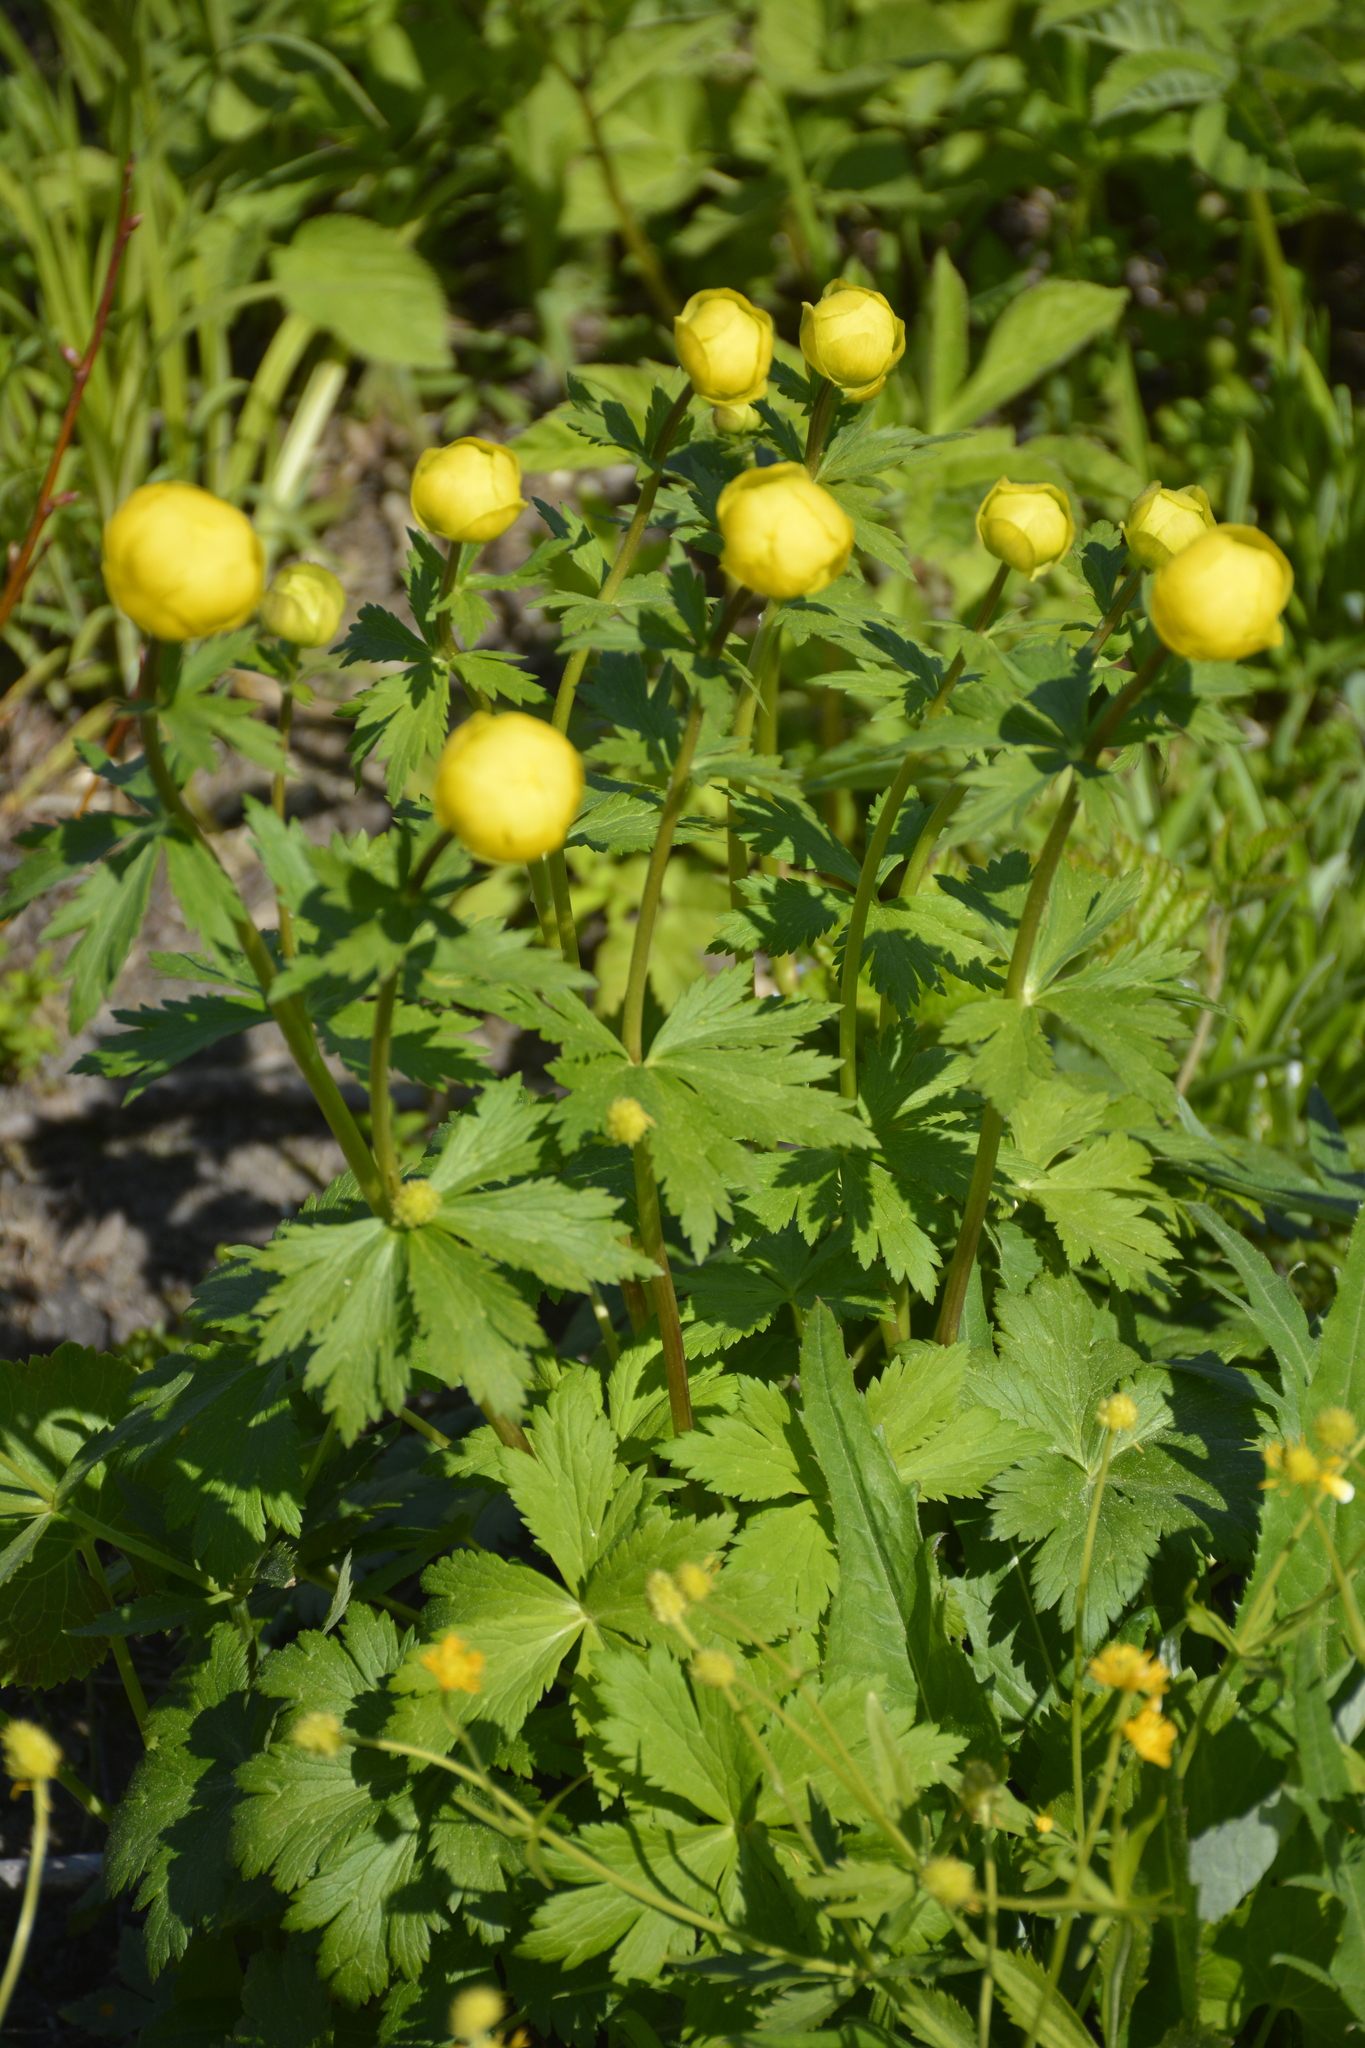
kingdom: Plantae
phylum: Tracheophyta
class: Magnoliopsida
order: Ranunculales
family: Ranunculaceae
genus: Trollius
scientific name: Trollius europaeus
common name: European globeflower
